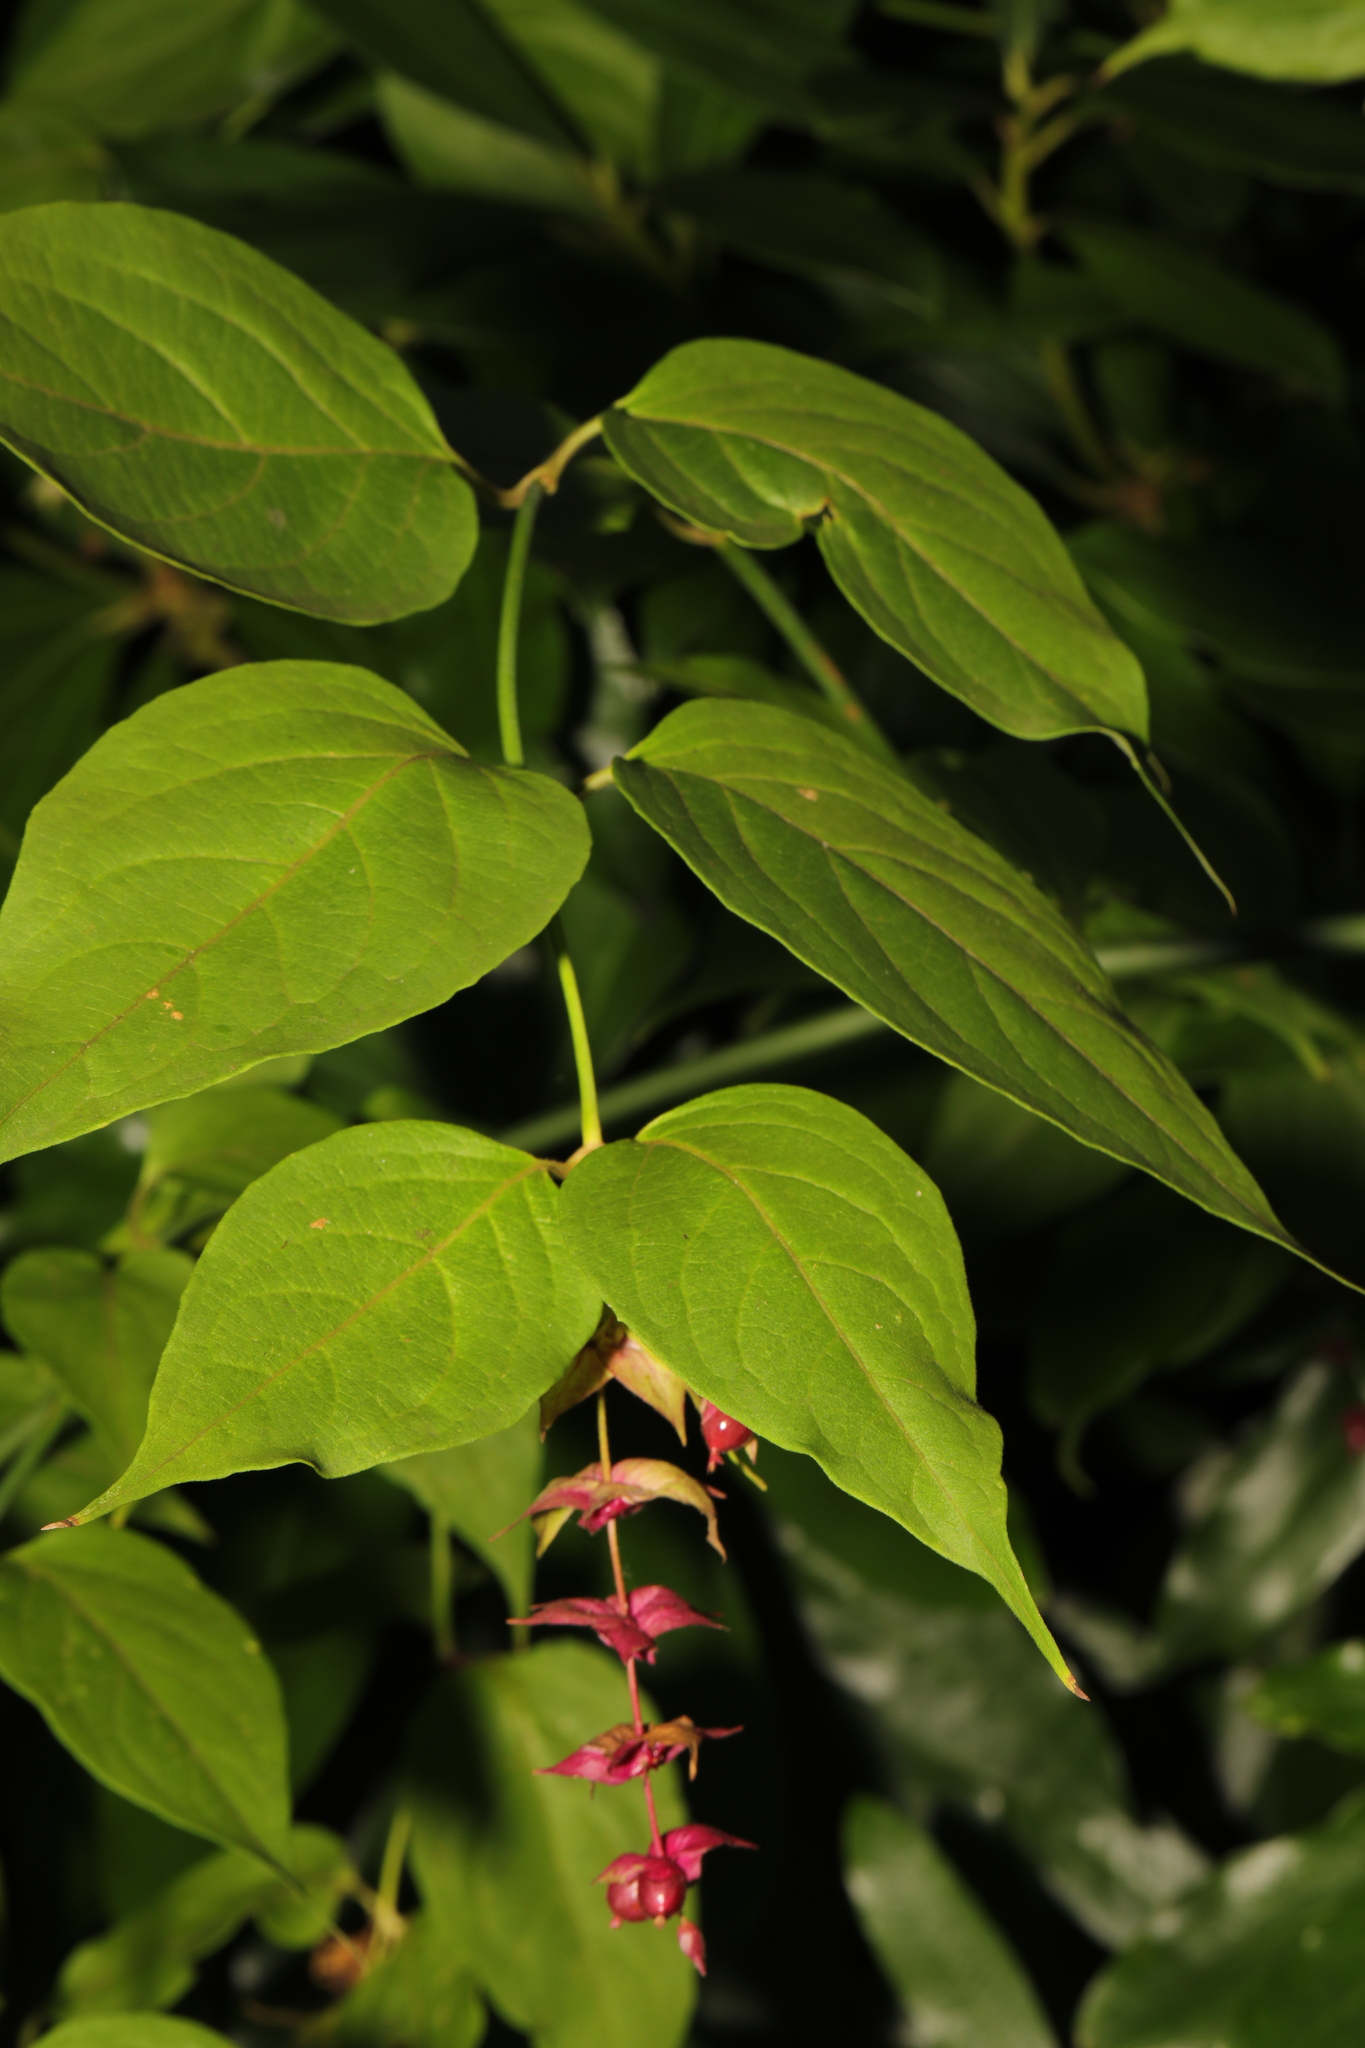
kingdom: Plantae
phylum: Tracheophyta
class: Magnoliopsida
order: Dipsacales
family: Caprifoliaceae
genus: Leycesteria
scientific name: Leycesteria formosa
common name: Himalayan honeysuckle
